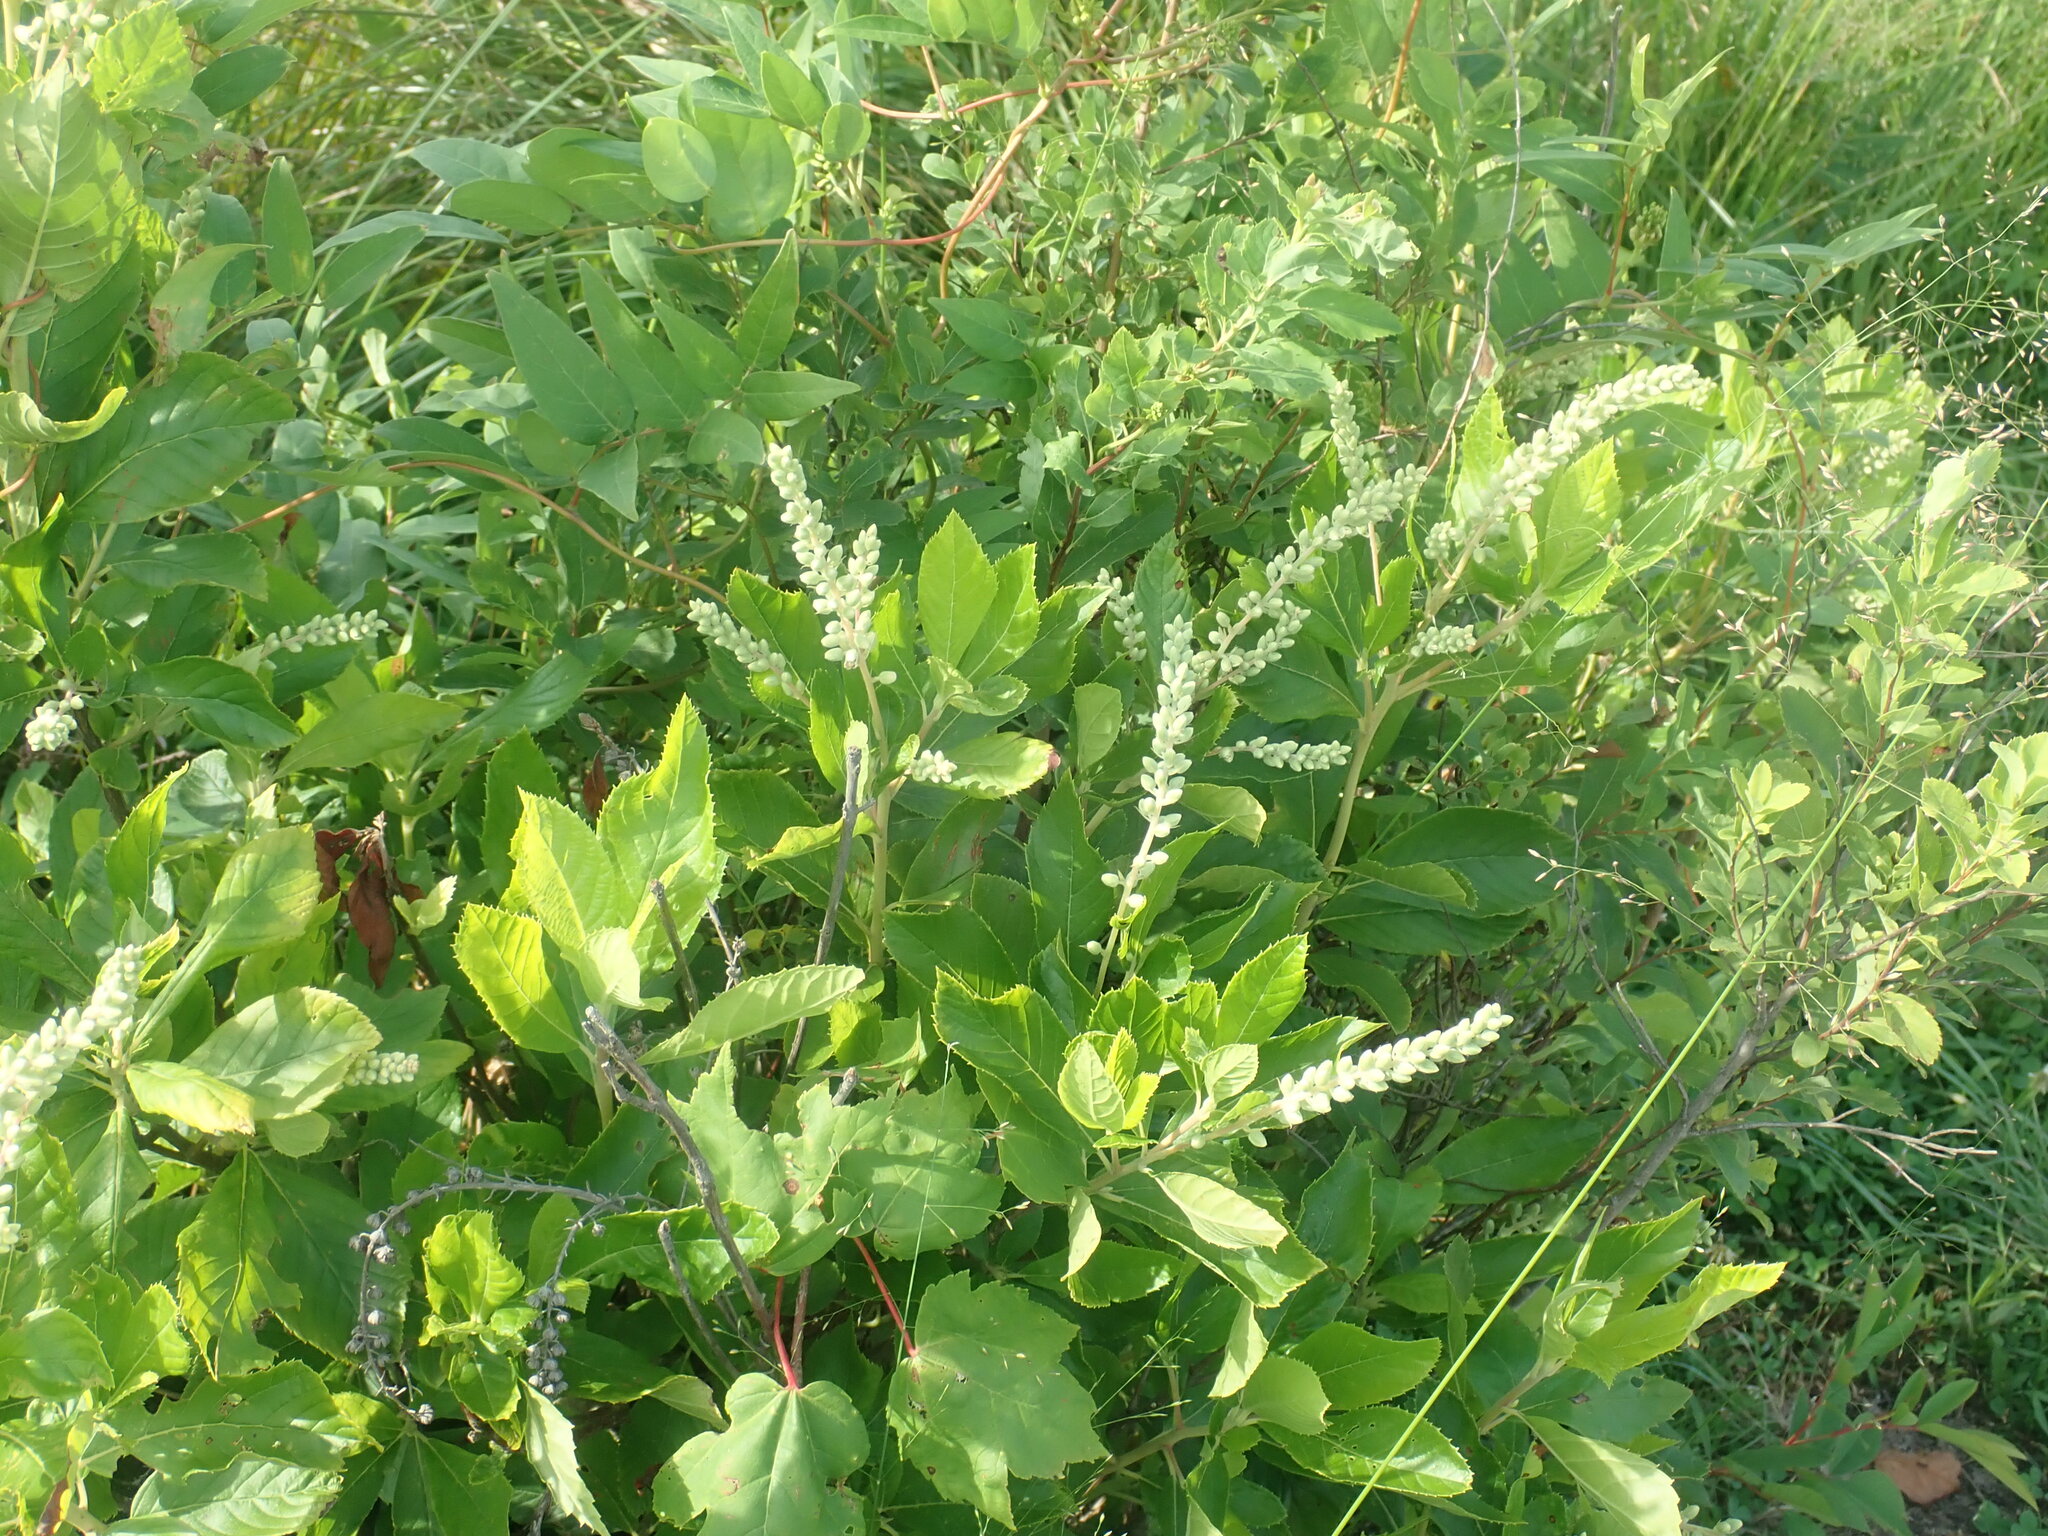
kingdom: Plantae
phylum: Tracheophyta
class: Magnoliopsida
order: Ericales
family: Clethraceae
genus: Clethra
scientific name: Clethra alnifolia
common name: Sweet pepperbush
